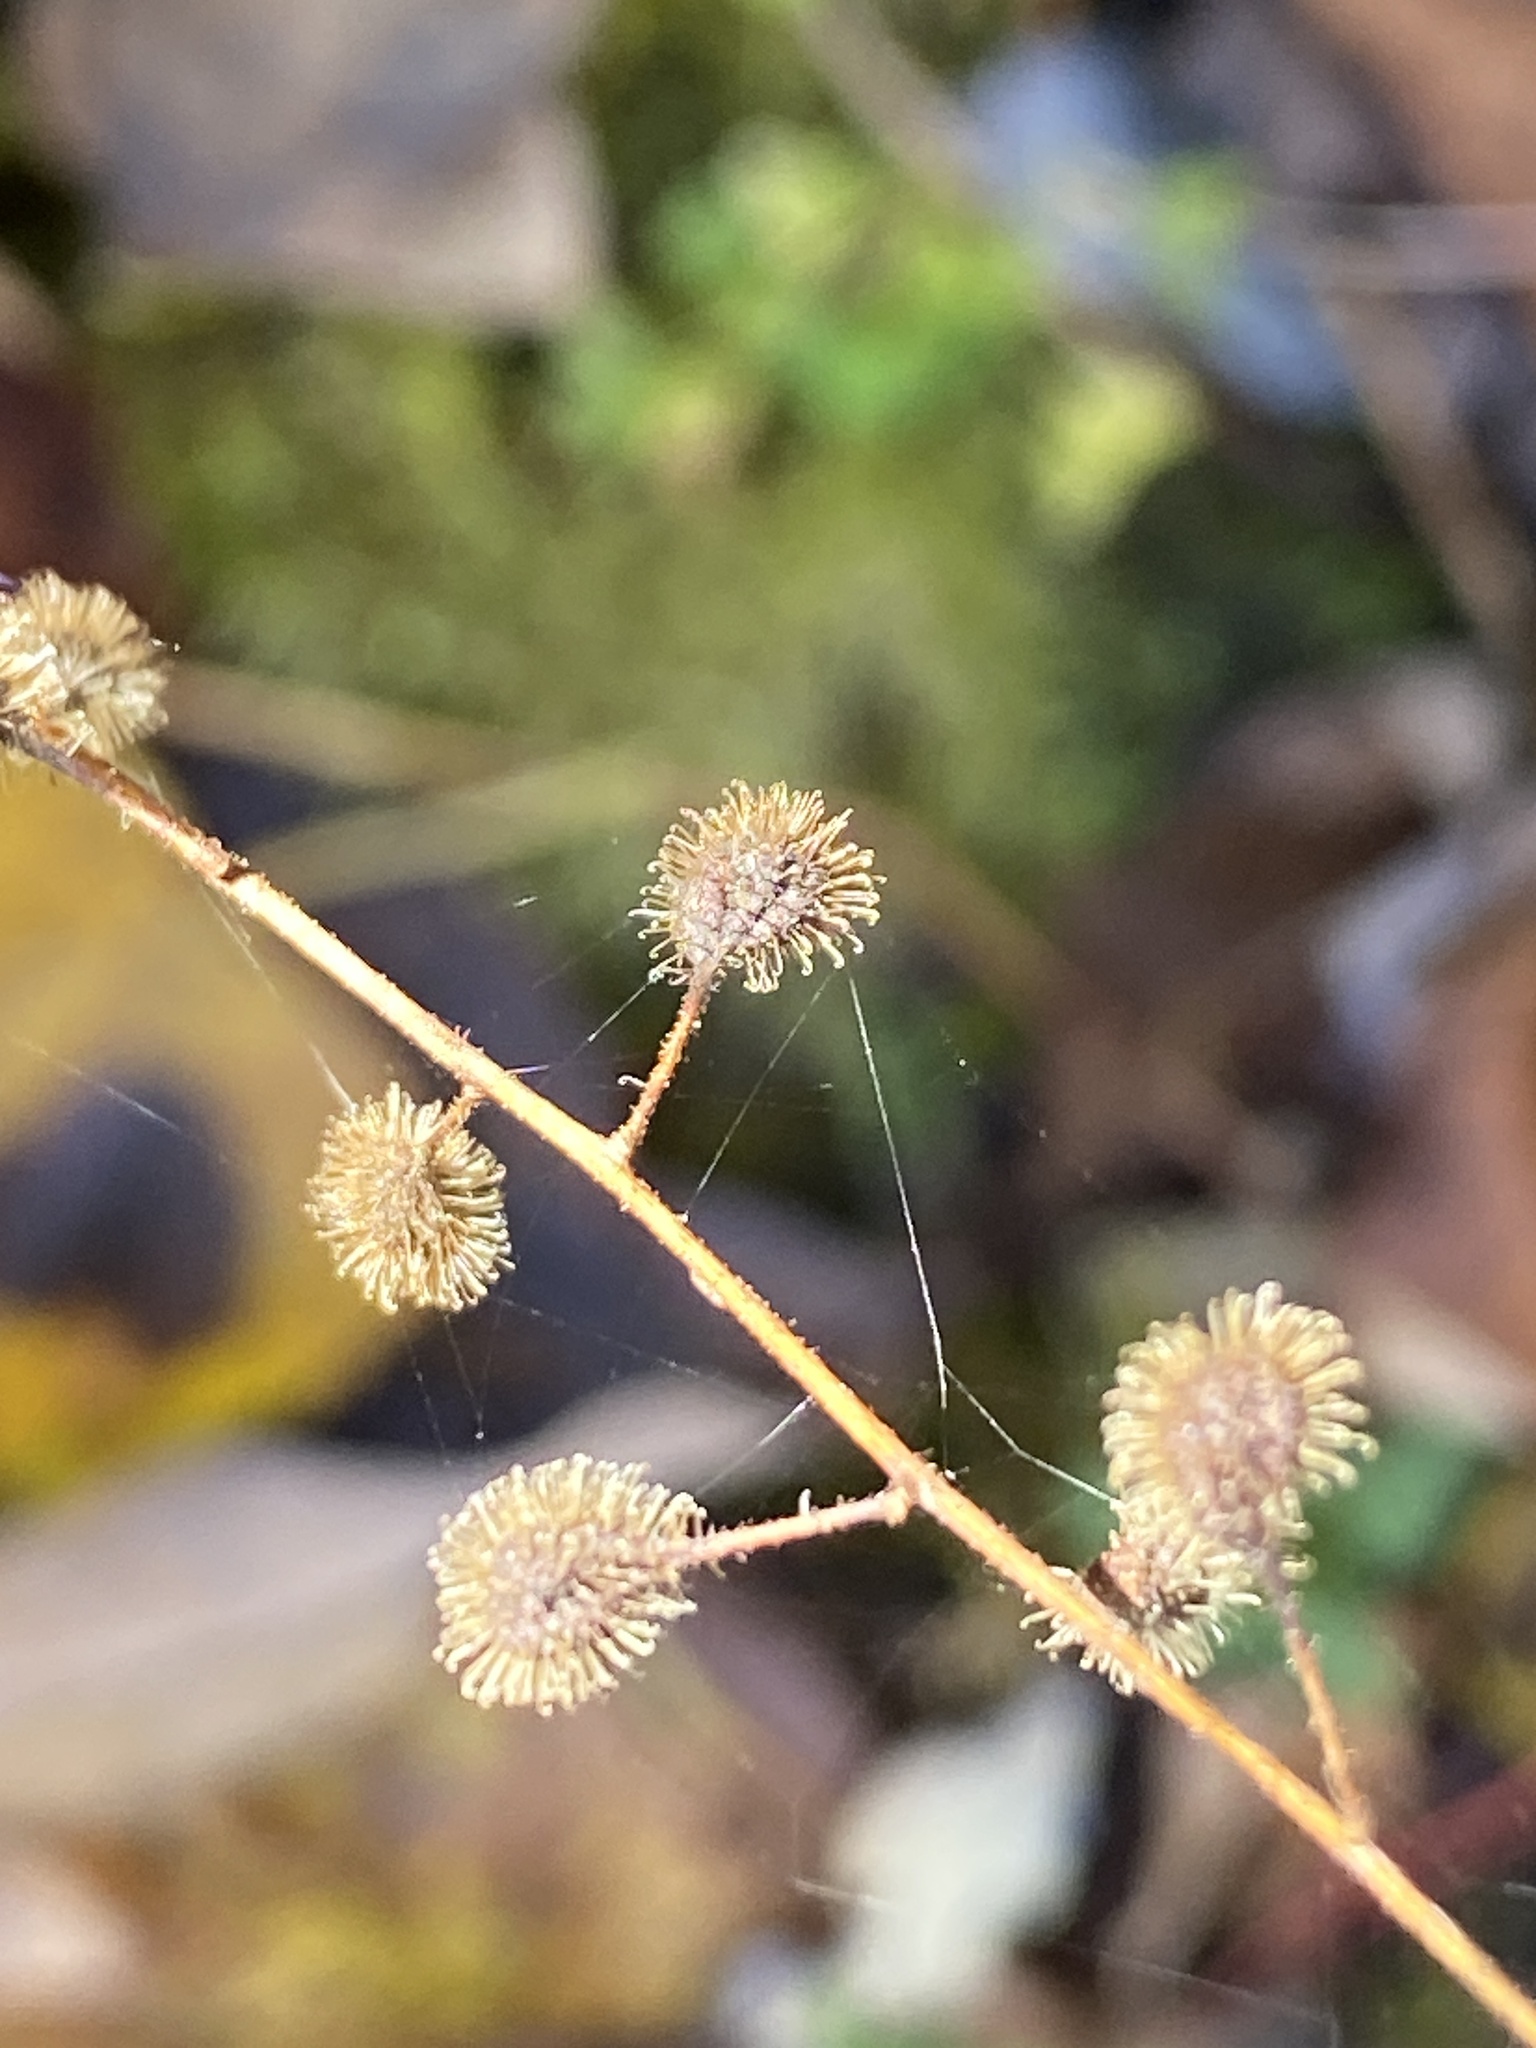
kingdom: Plantae
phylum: Tracheophyta
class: Magnoliopsida
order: Myrtales
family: Onagraceae
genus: Circaea
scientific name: Circaea canadensis
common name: Broad-leaved enchanter's nightshade
